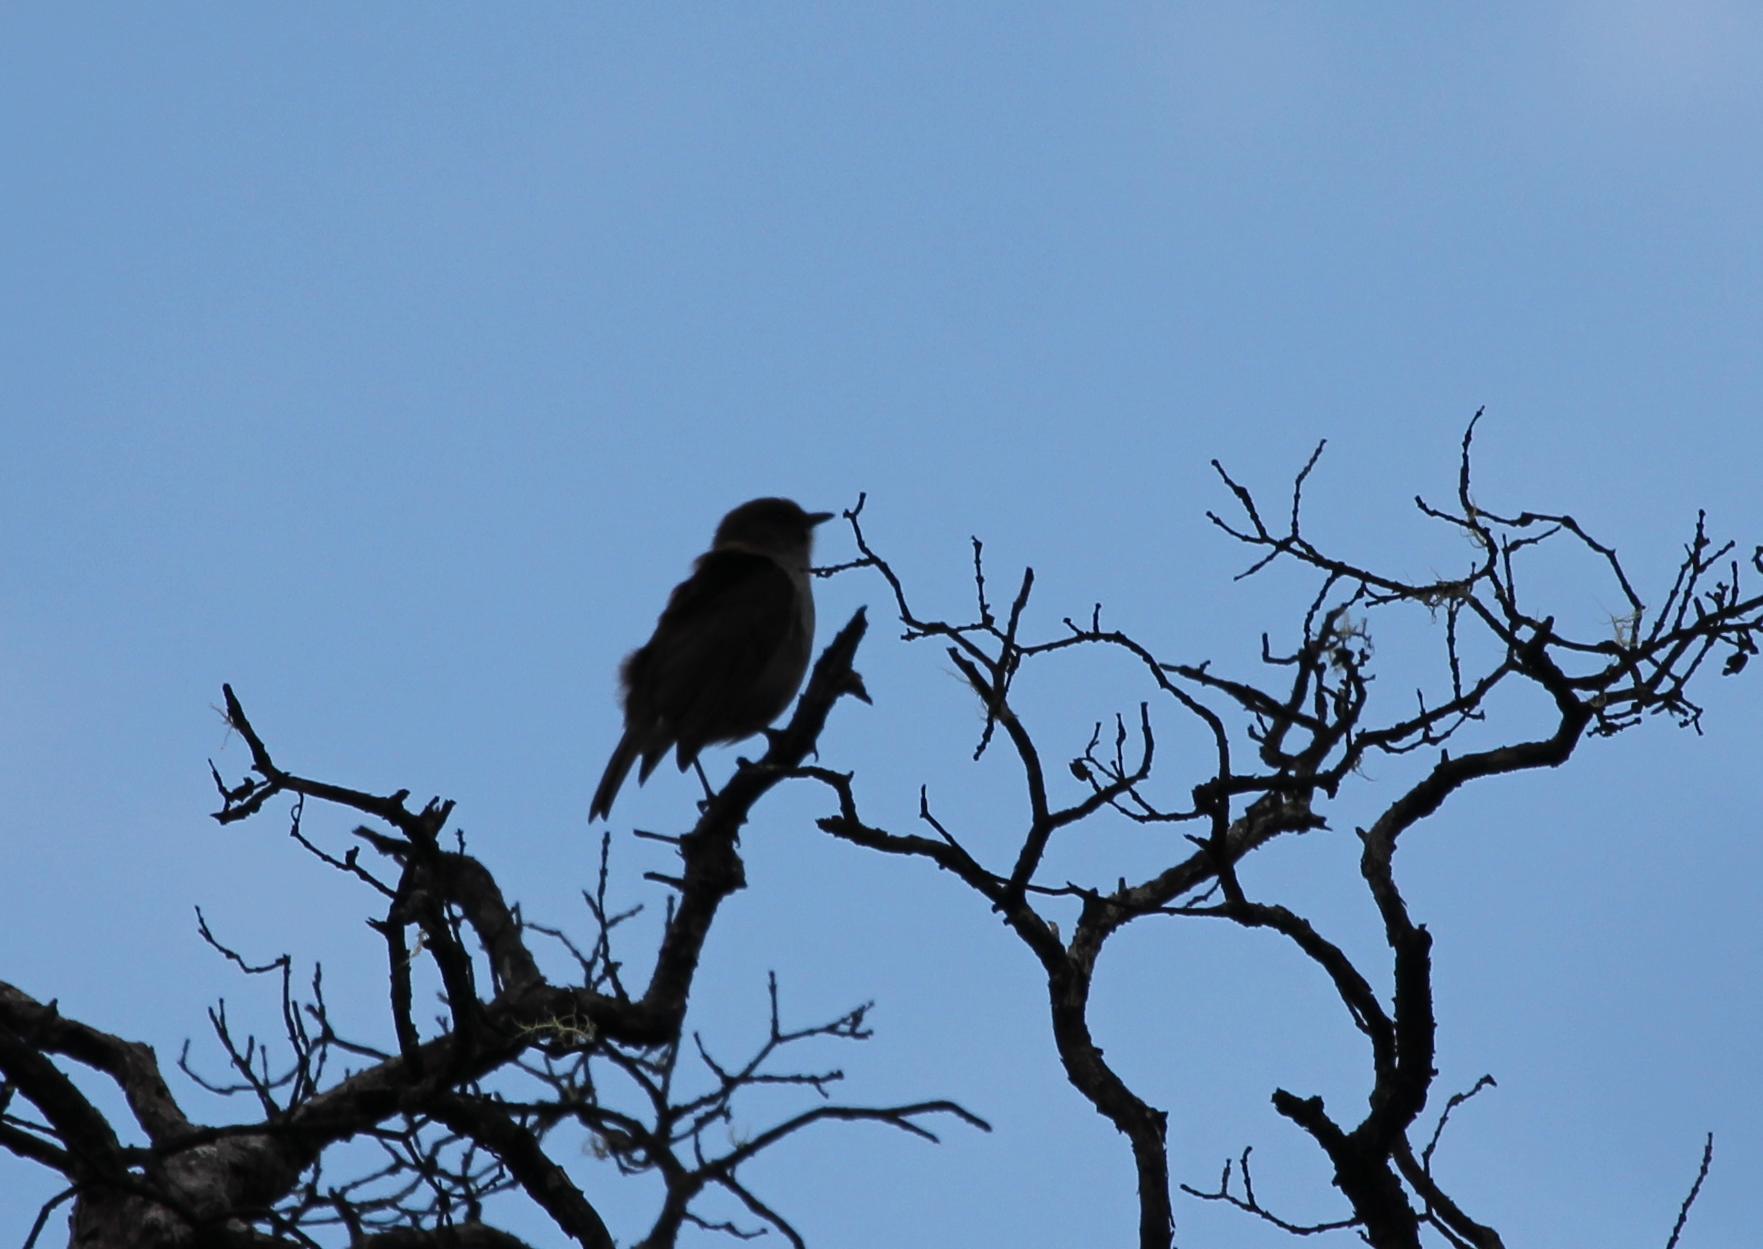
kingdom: Animalia
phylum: Chordata
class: Aves
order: Passeriformes
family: Turdidae
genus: Myadestes
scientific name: Myadestes obscurus
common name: Omao
